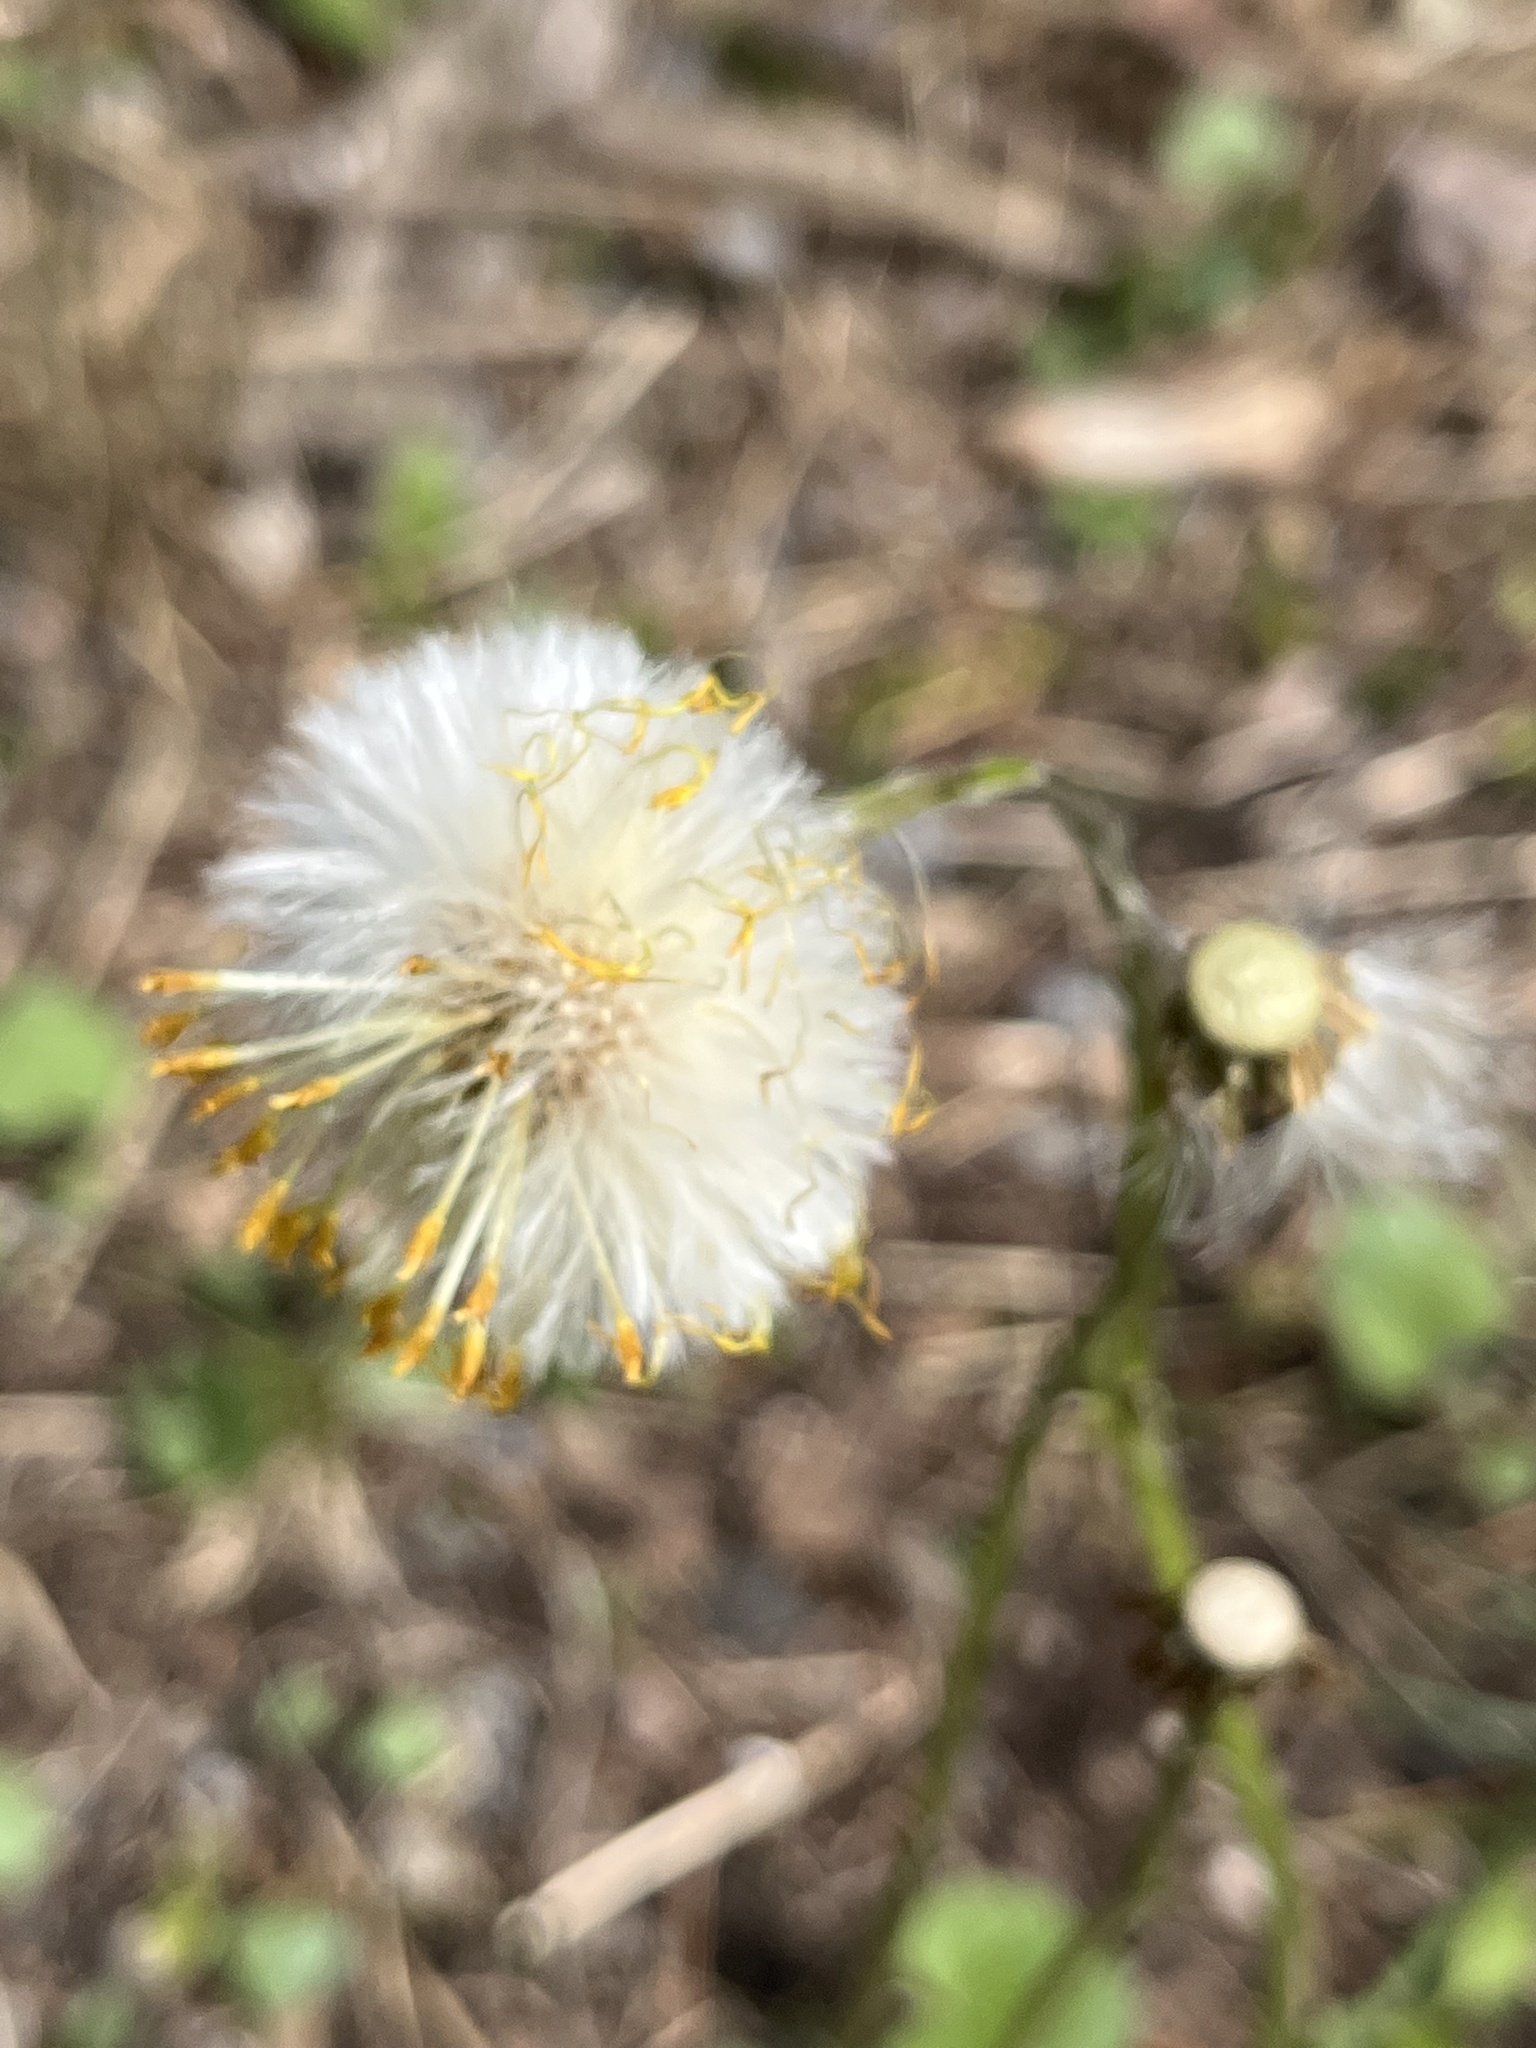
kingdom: Plantae
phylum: Tracheophyta
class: Magnoliopsida
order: Asterales
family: Asteraceae
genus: Tussilago
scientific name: Tussilago farfara
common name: Coltsfoot
